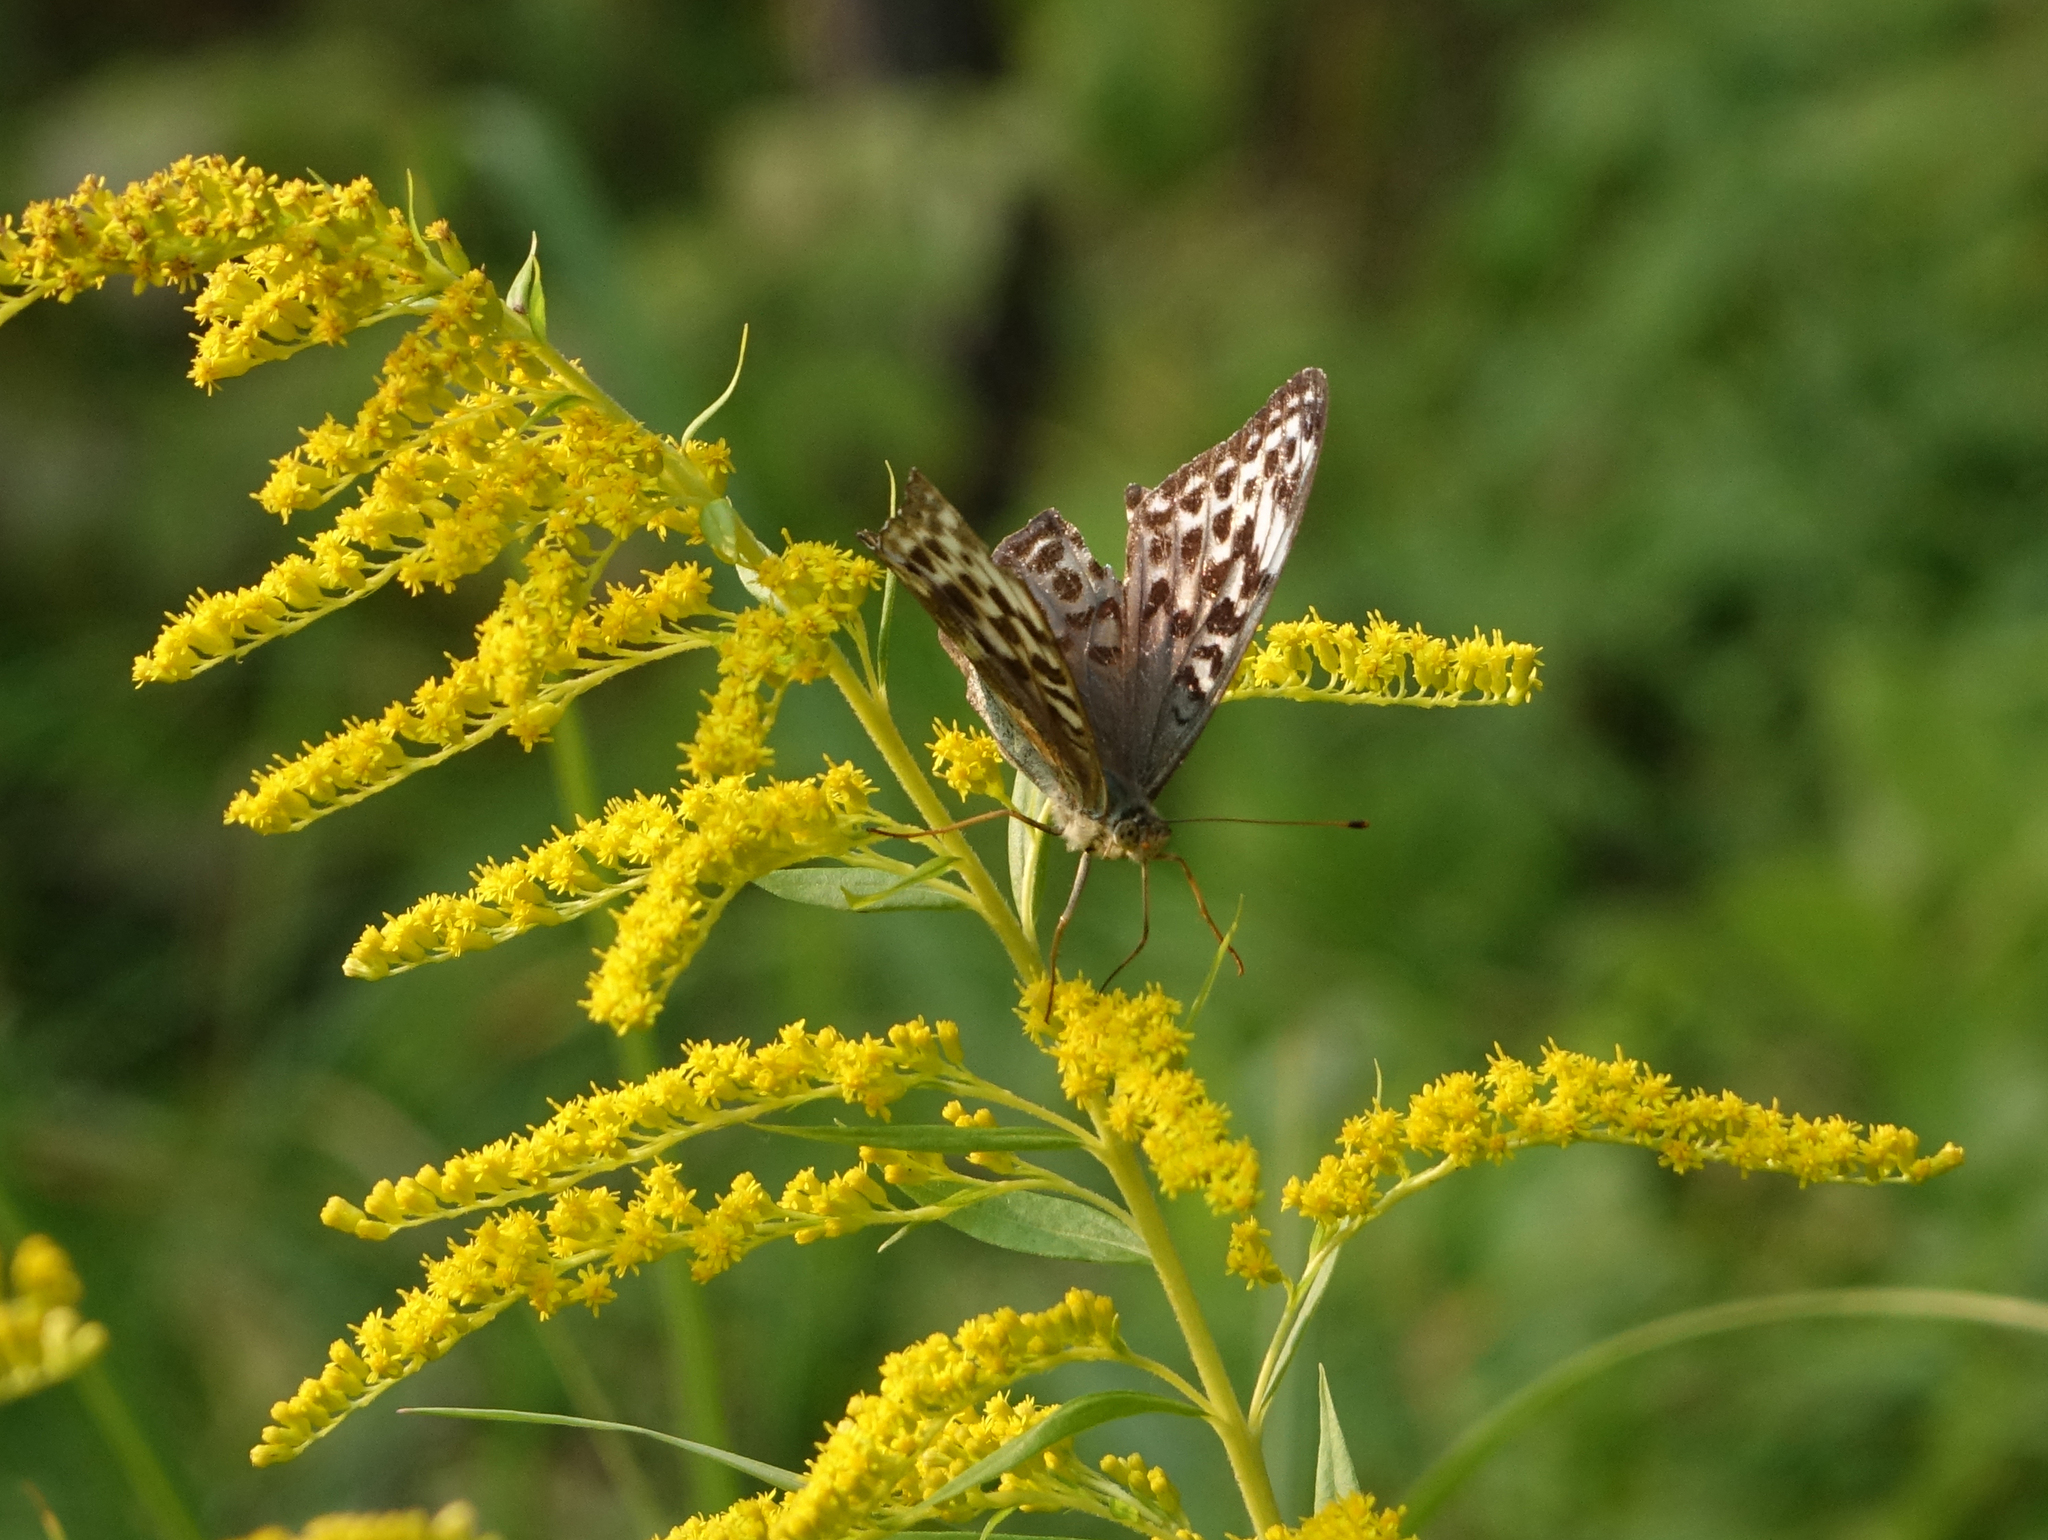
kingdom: Animalia
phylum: Arthropoda
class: Insecta
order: Lepidoptera
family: Nymphalidae
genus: Argynnis
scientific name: Argynnis paphia
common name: Silver-washed fritillary
